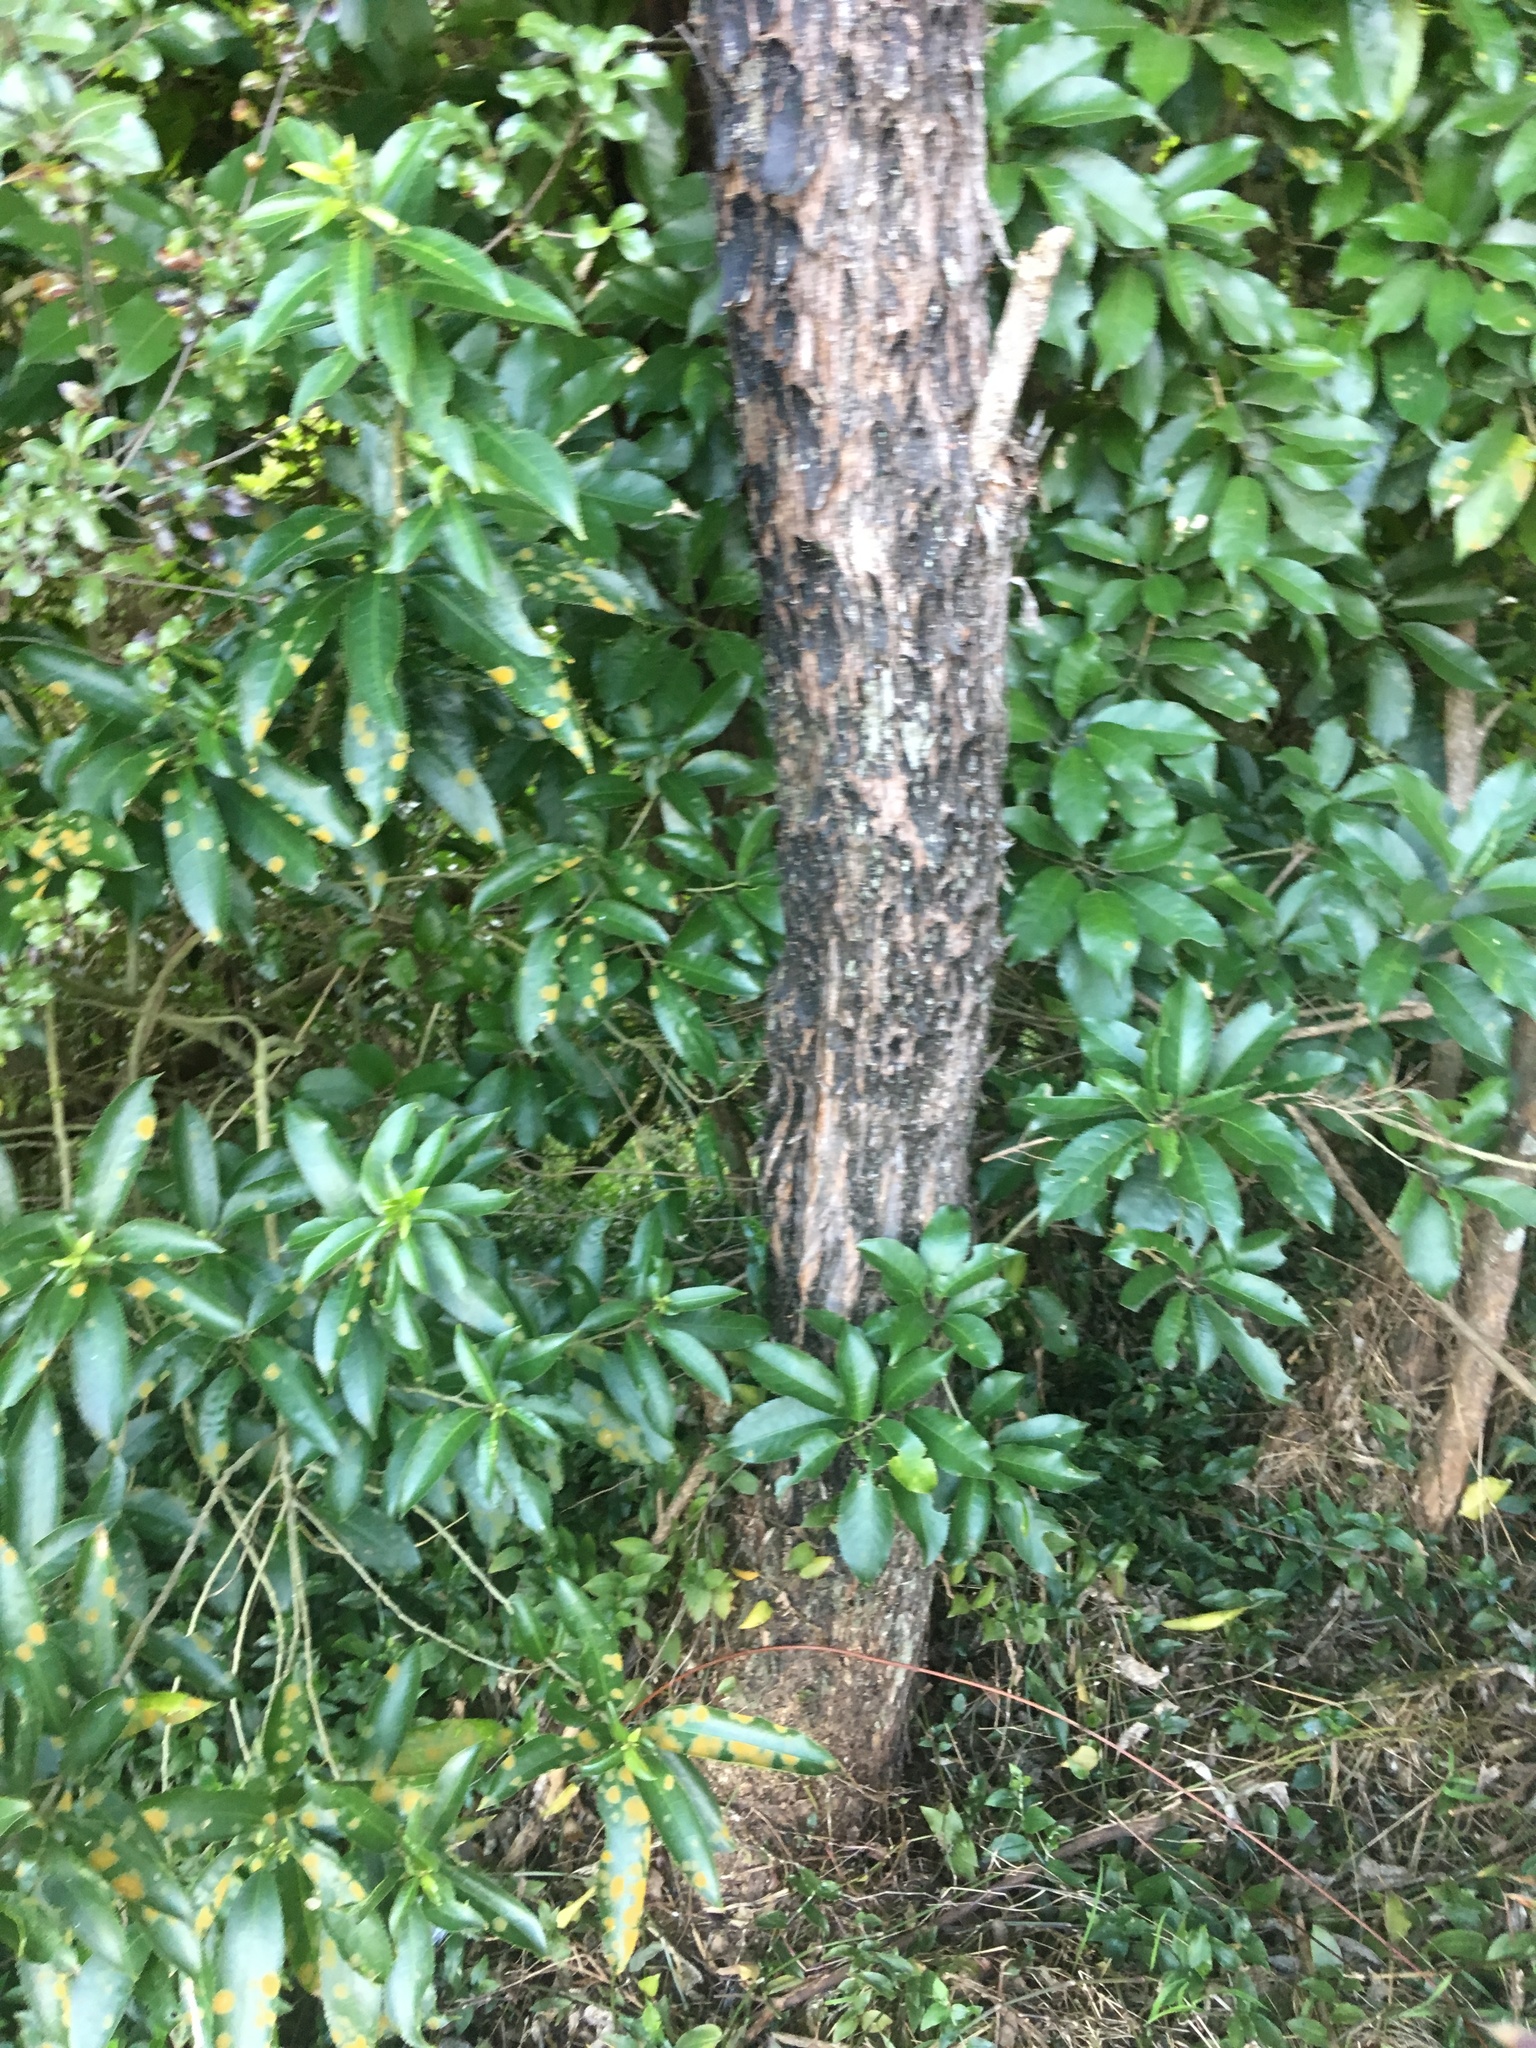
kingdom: Plantae
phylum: Tracheophyta
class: Magnoliopsida
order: Dipsacales
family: Caprifoliaceae
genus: Lonicera
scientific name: Lonicera japonica
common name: Japanese honeysuckle
